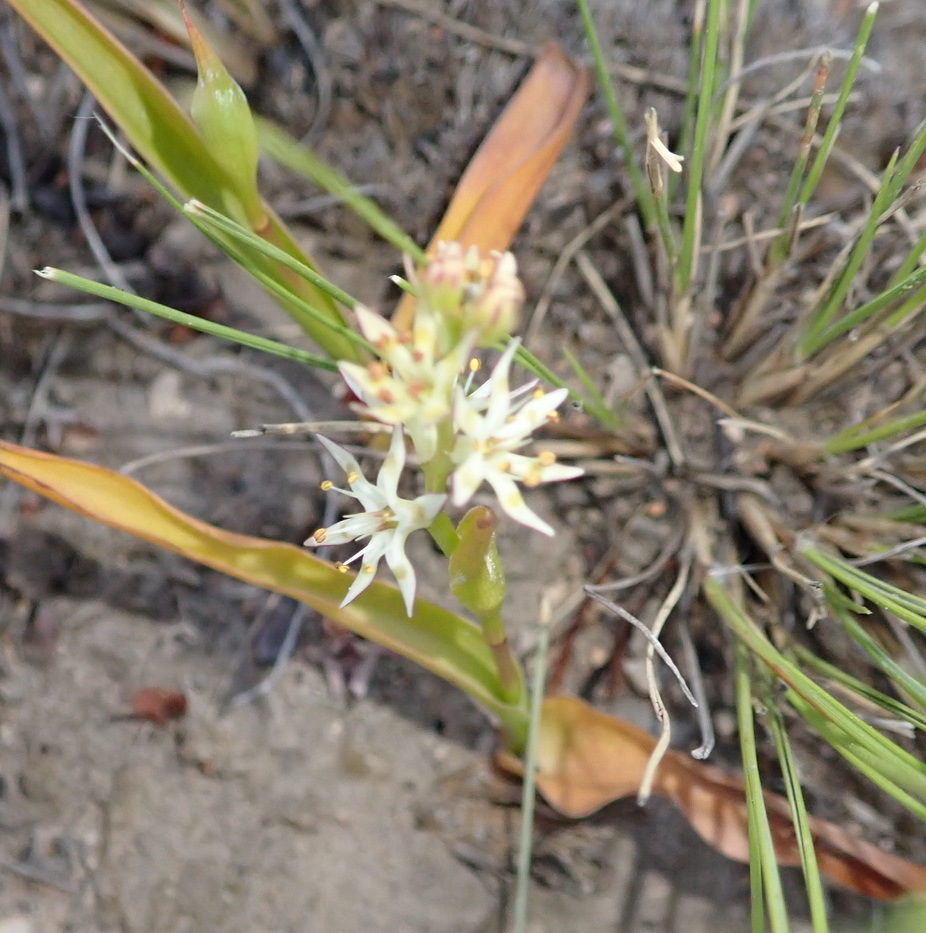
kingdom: Plantae
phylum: Tracheophyta
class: Liliopsida
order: Liliales
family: Colchicaceae
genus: Wurmbea
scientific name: Wurmbea variabilis
